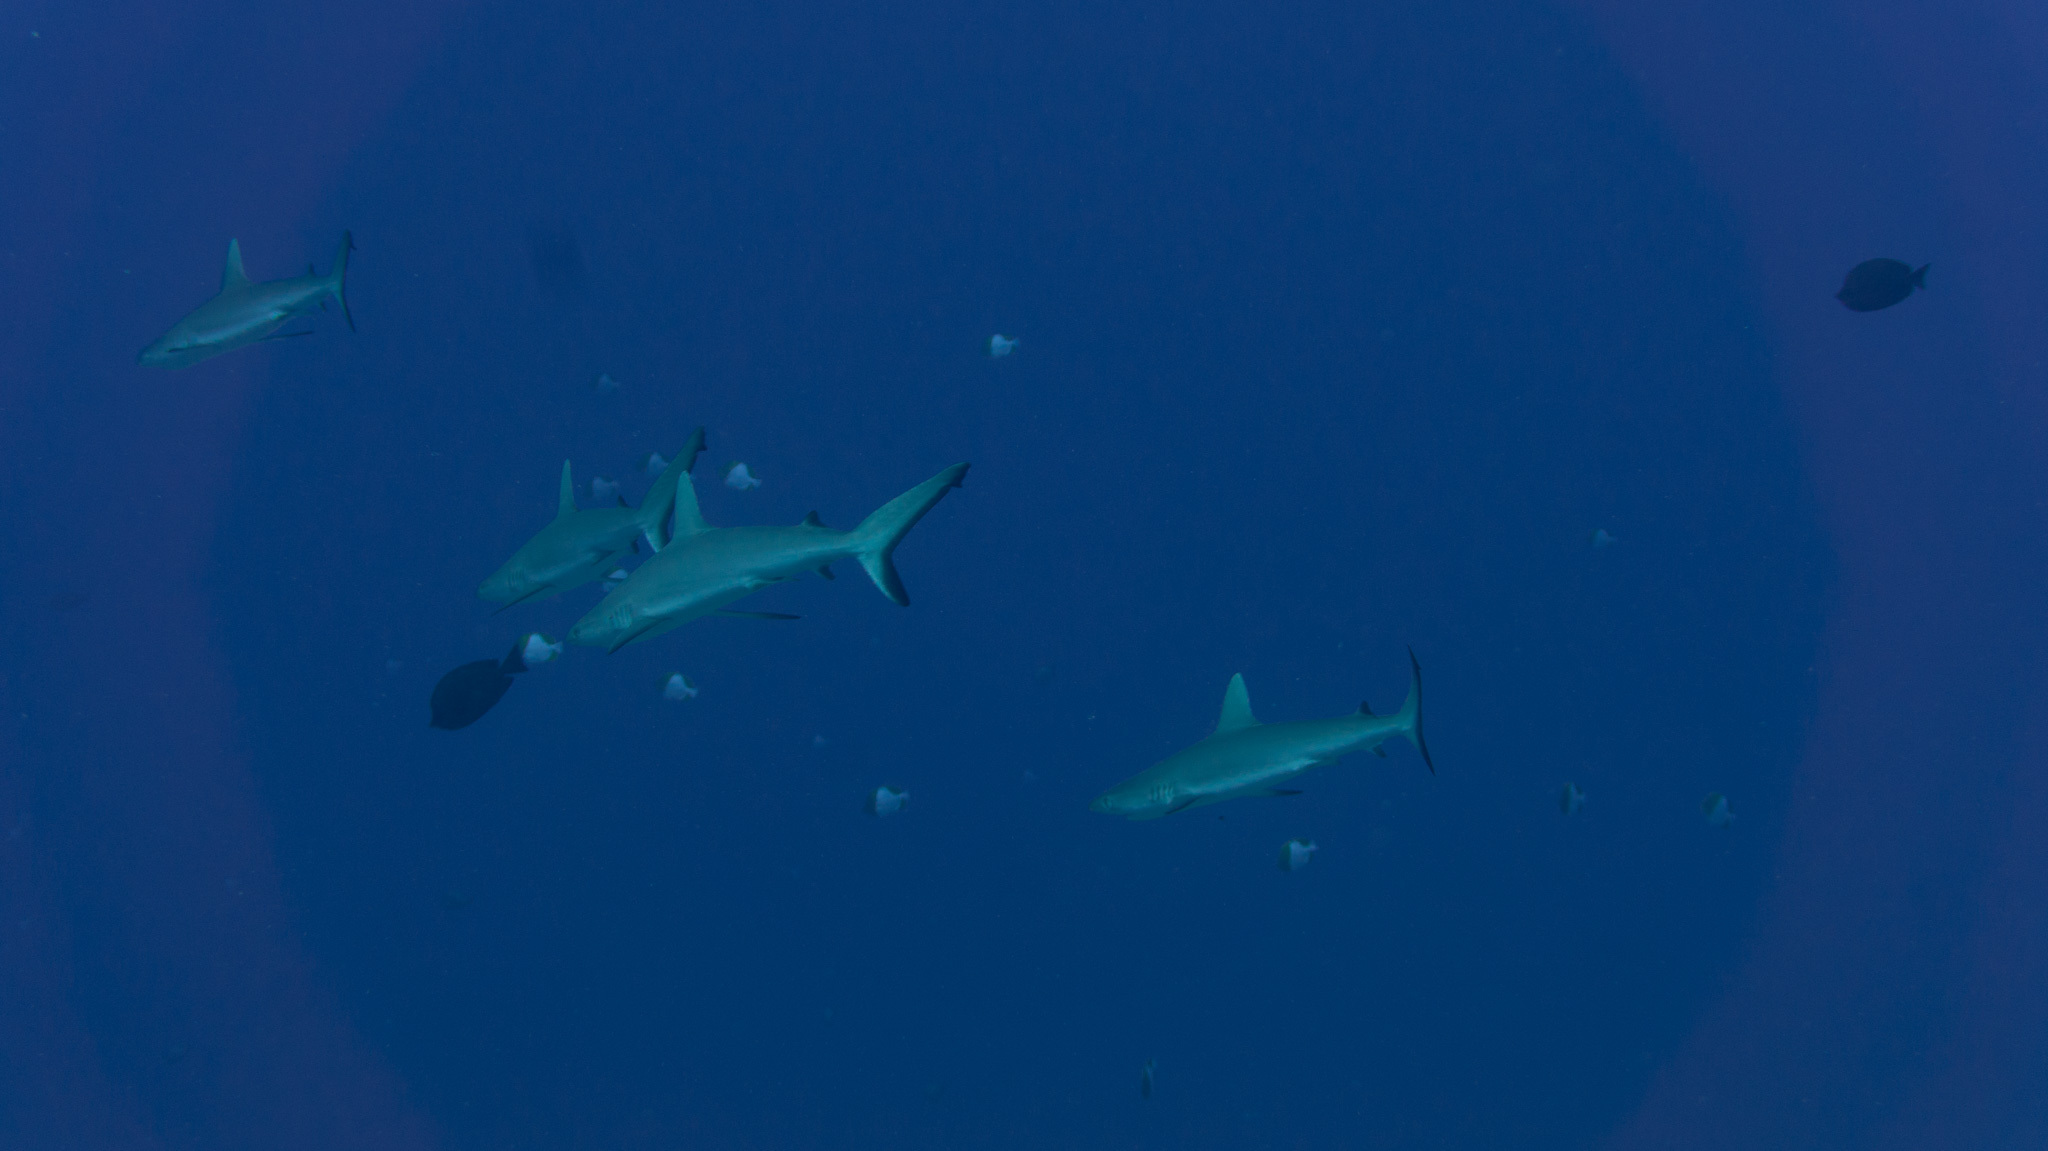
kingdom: Animalia
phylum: Chordata
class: Elasmobranchii
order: Carcharhiniformes
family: Carcharhinidae
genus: Carcharhinus
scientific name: Carcharhinus amblyrhynchos
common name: Grey reef shark
